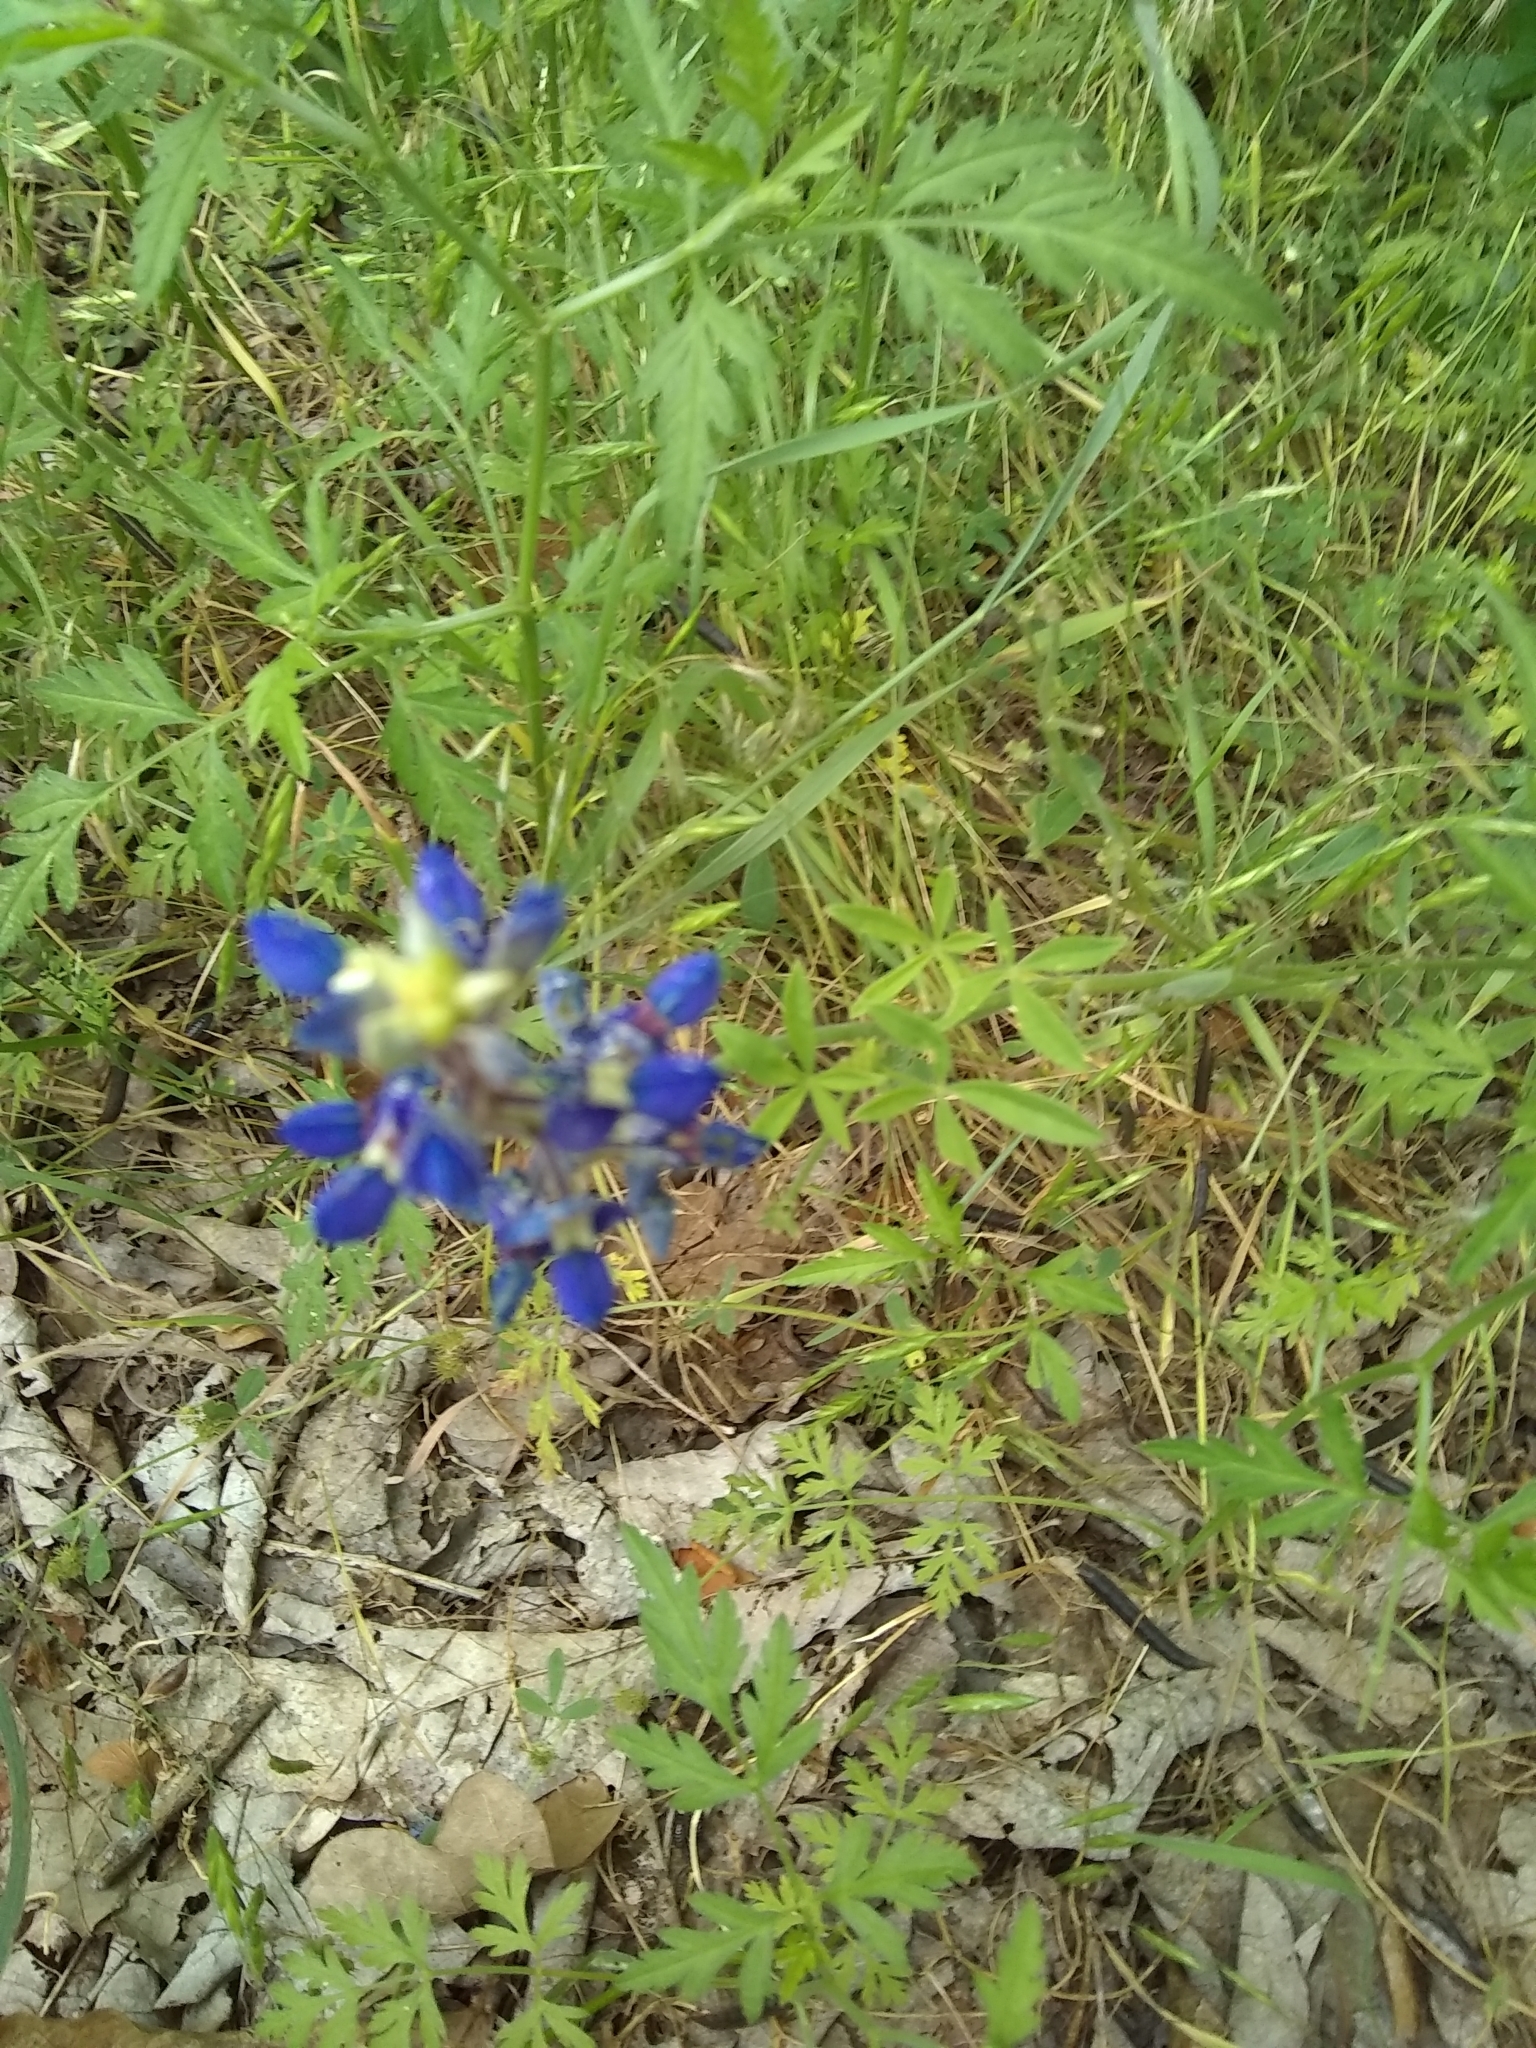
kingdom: Plantae
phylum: Tracheophyta
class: Magnoliopsida
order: Fabales
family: Fabaceae
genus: Lupinus
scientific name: Lupinus texensis
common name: Texas bluebonnet
